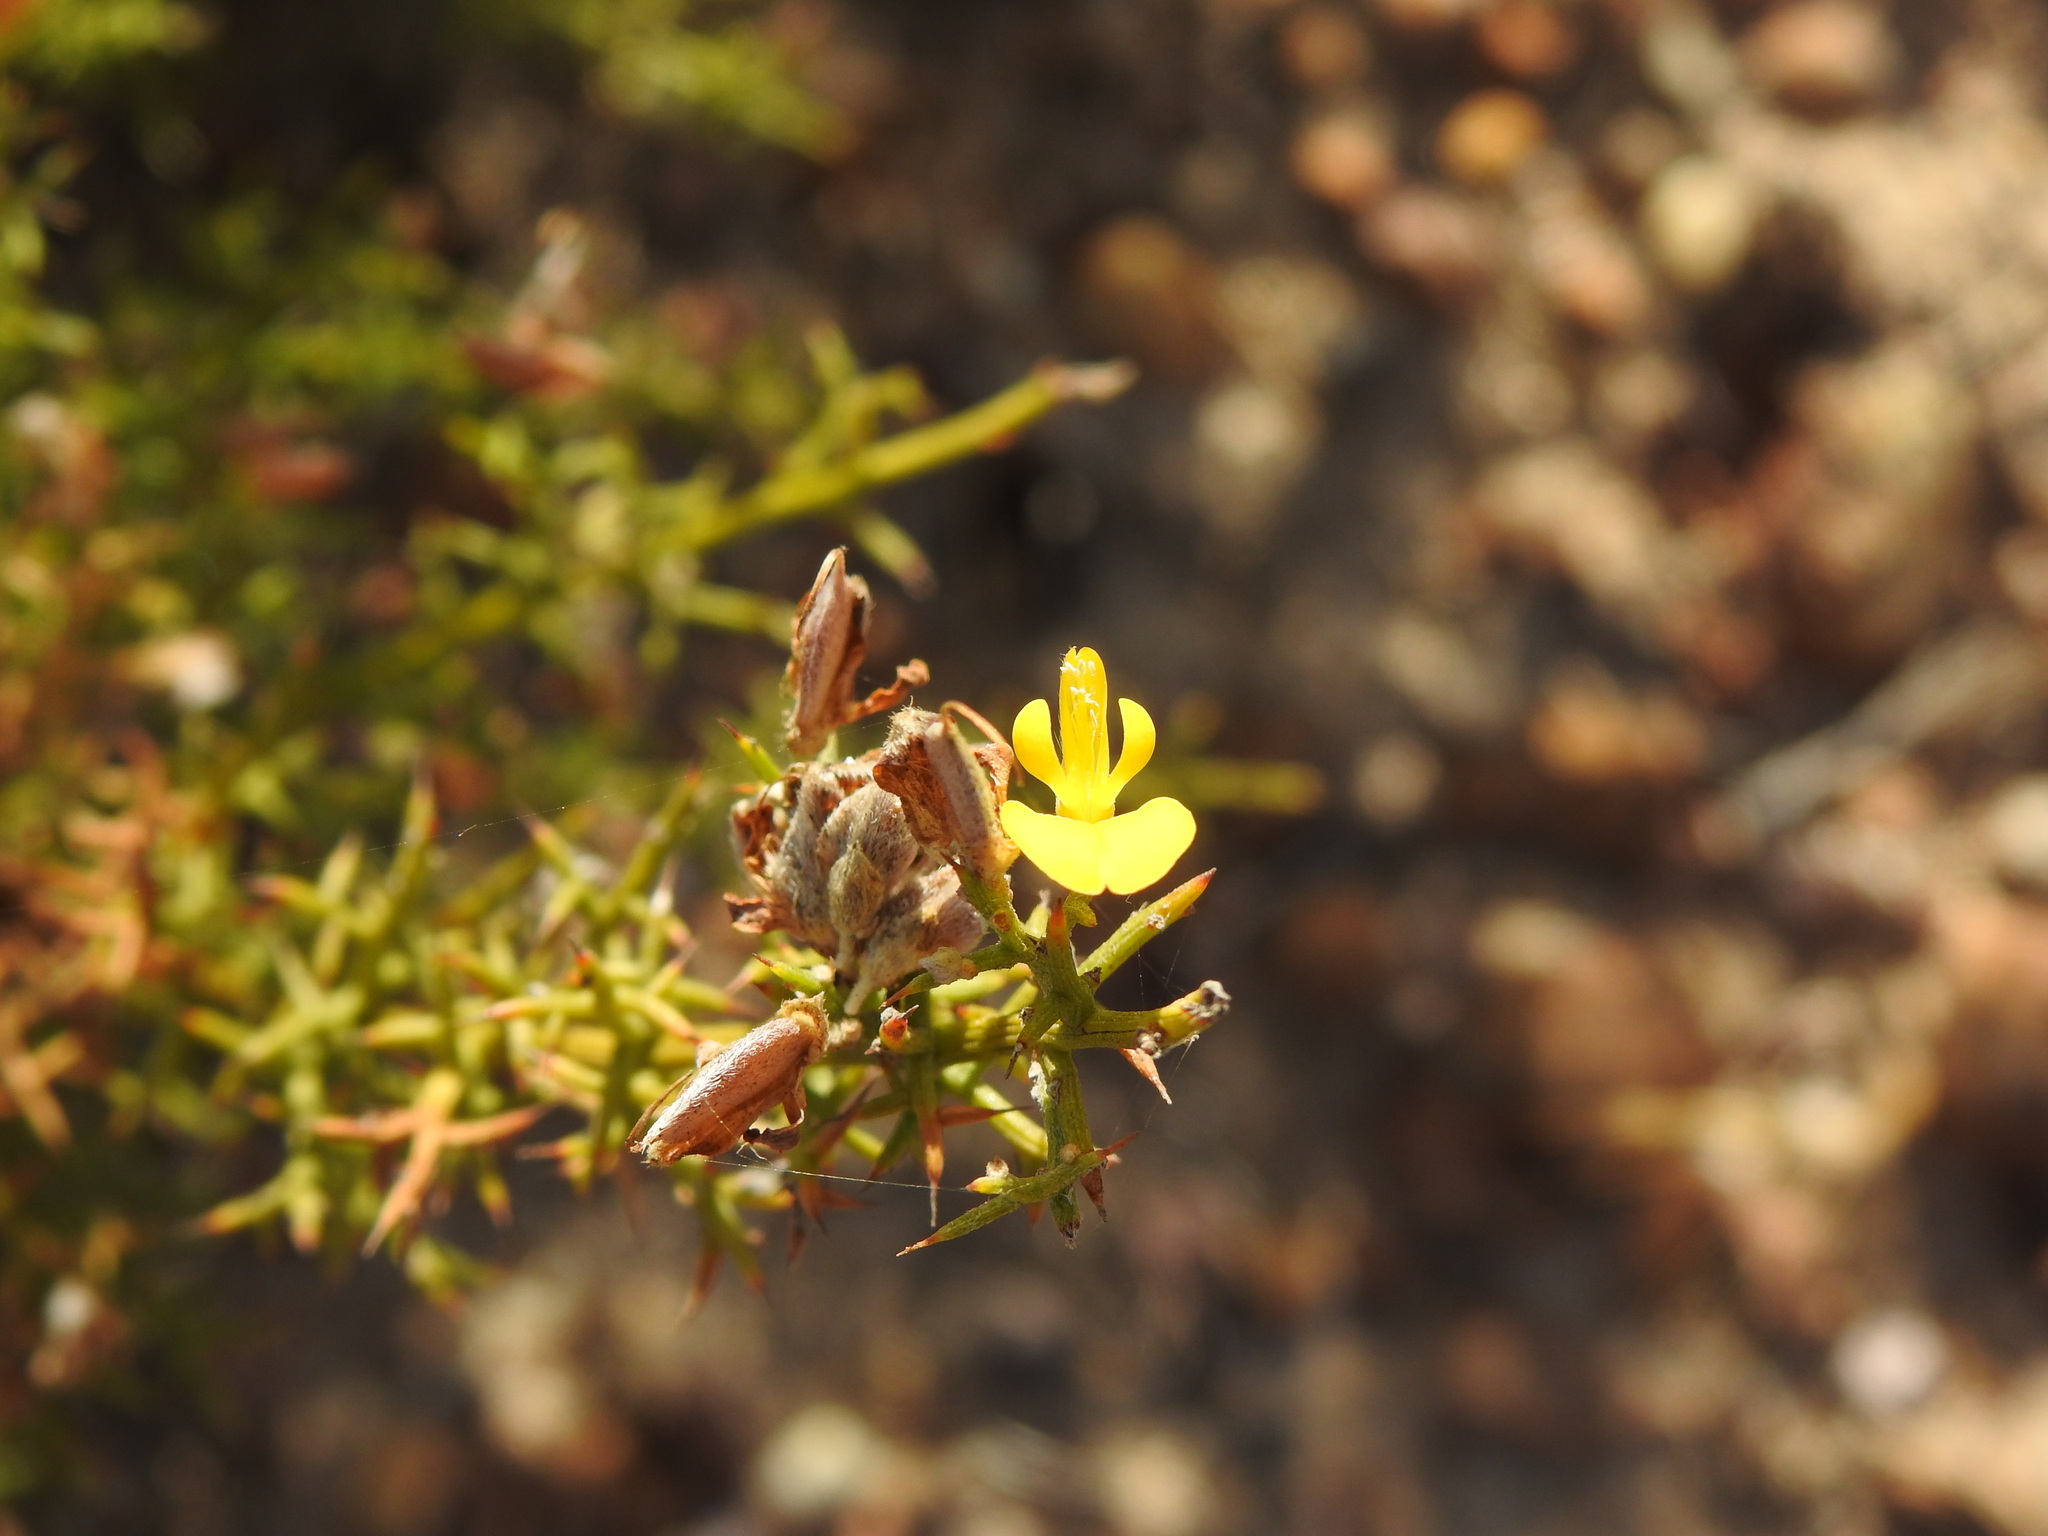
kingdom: Plantae
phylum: Tracheophyta
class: Magnoliopsida
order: Fabales
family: Fabaceae
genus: Stauracanthus
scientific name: Stauracanthus boivinii
